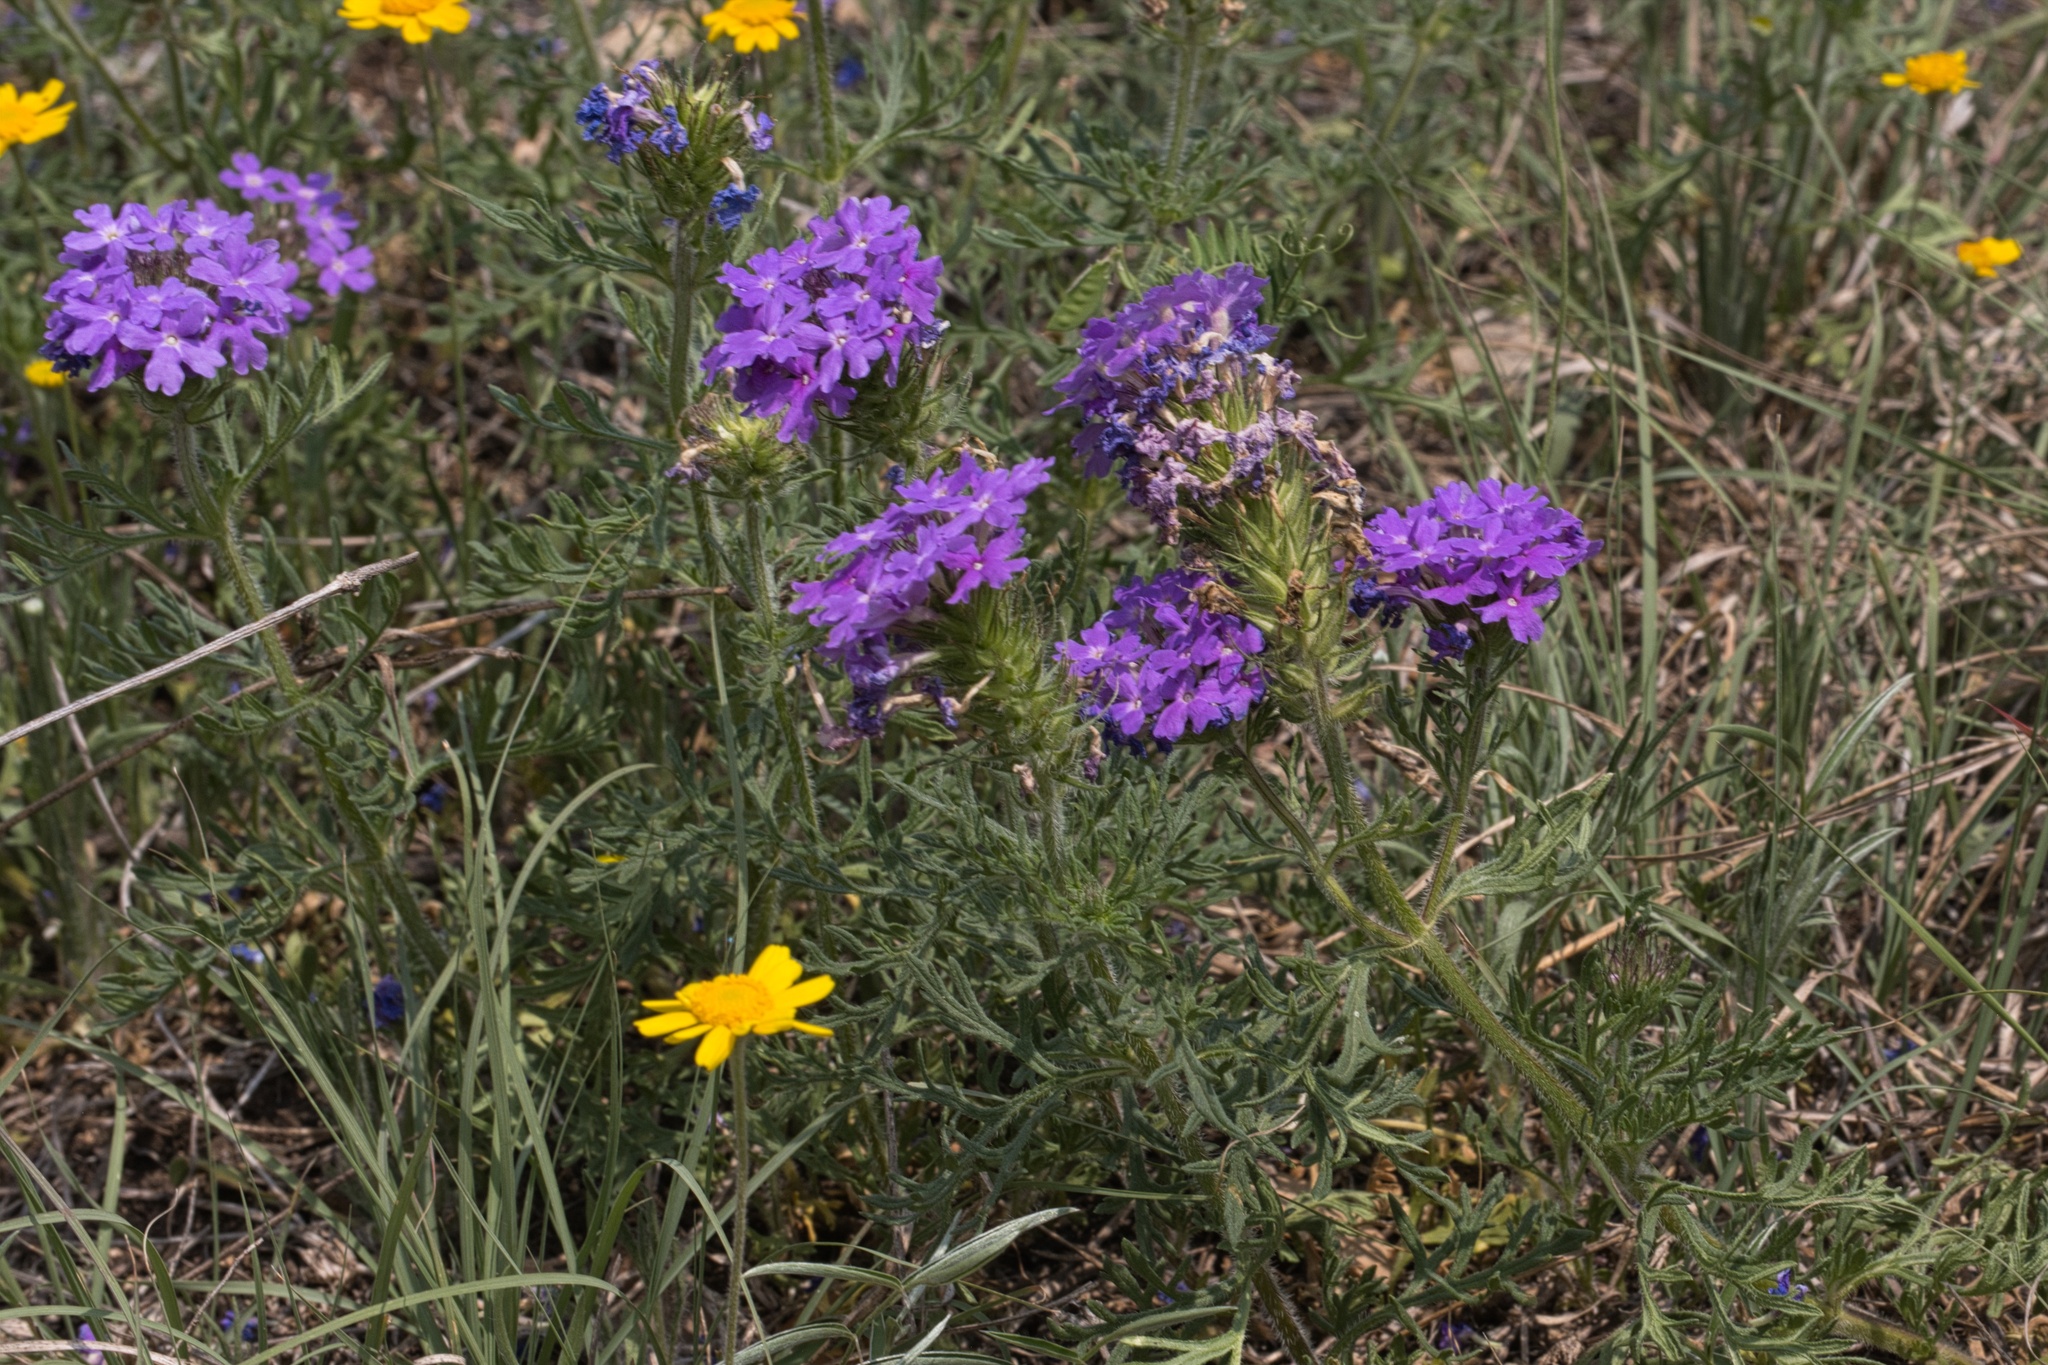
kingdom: Plantae
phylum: Tracheophyta
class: Magnoliopsida
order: Lamiales
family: Verbenaceae
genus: Verbena
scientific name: Verbena bipinnatifida
